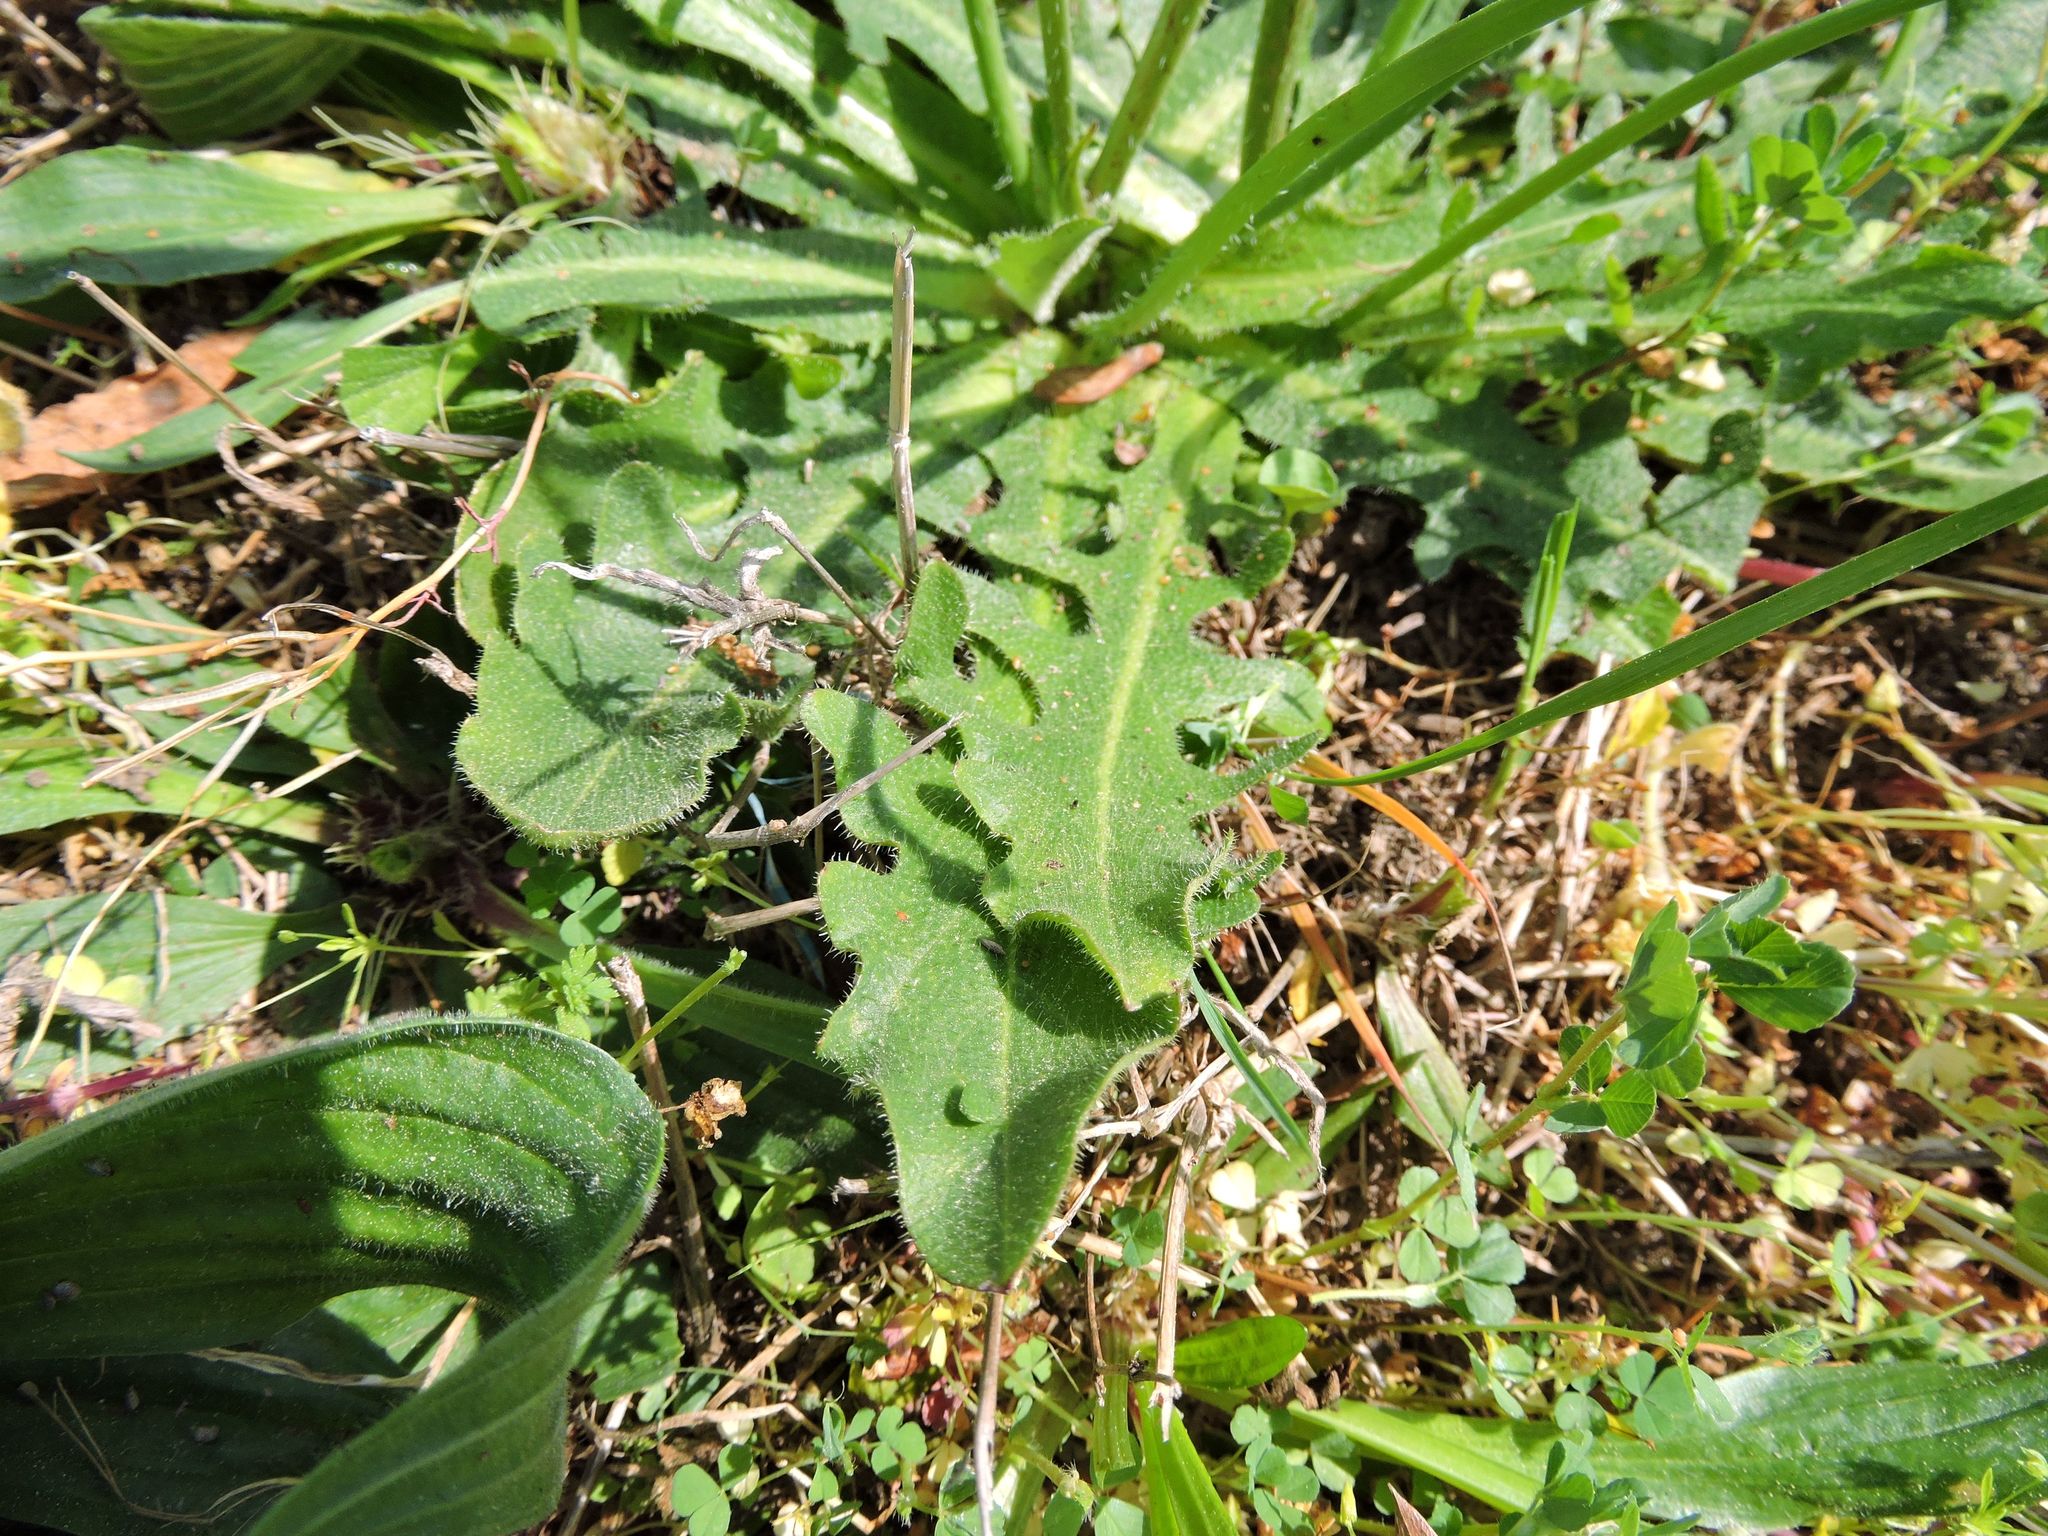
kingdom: Plantae
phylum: Tracheophyta
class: Magnoliopsida
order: Asterales
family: Asteraceae
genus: Hypochaeris
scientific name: Hypochaeris radicata
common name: Flatweed
